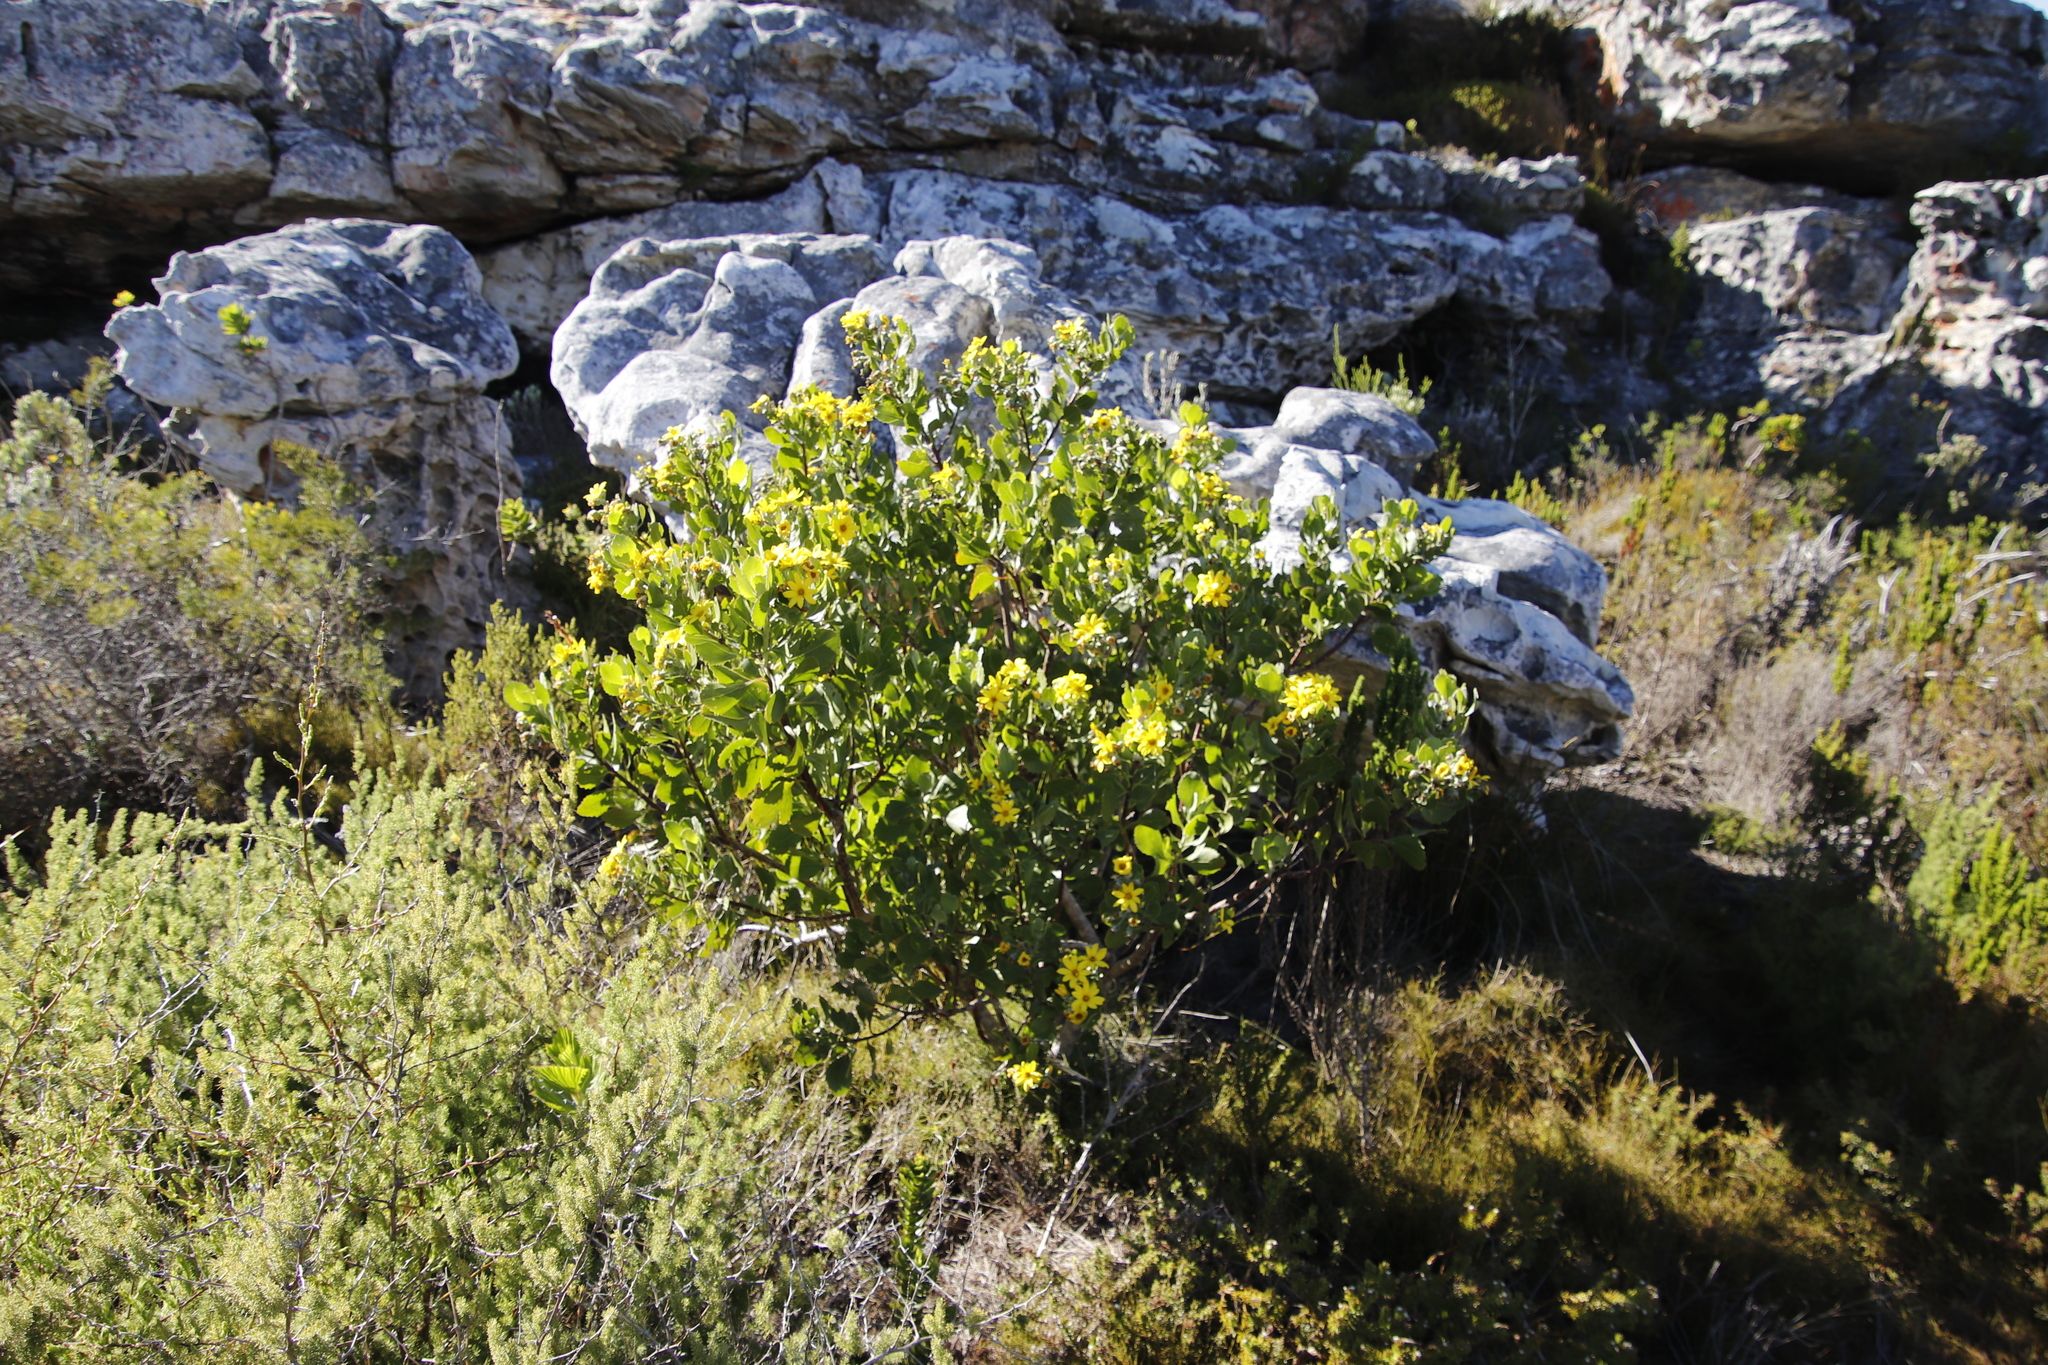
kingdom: Plantae
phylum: Tracheophyta
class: Magnoliopsida
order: Asterales
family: Asteraceae
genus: Osteospermum
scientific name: Osteospermum moniliferum
